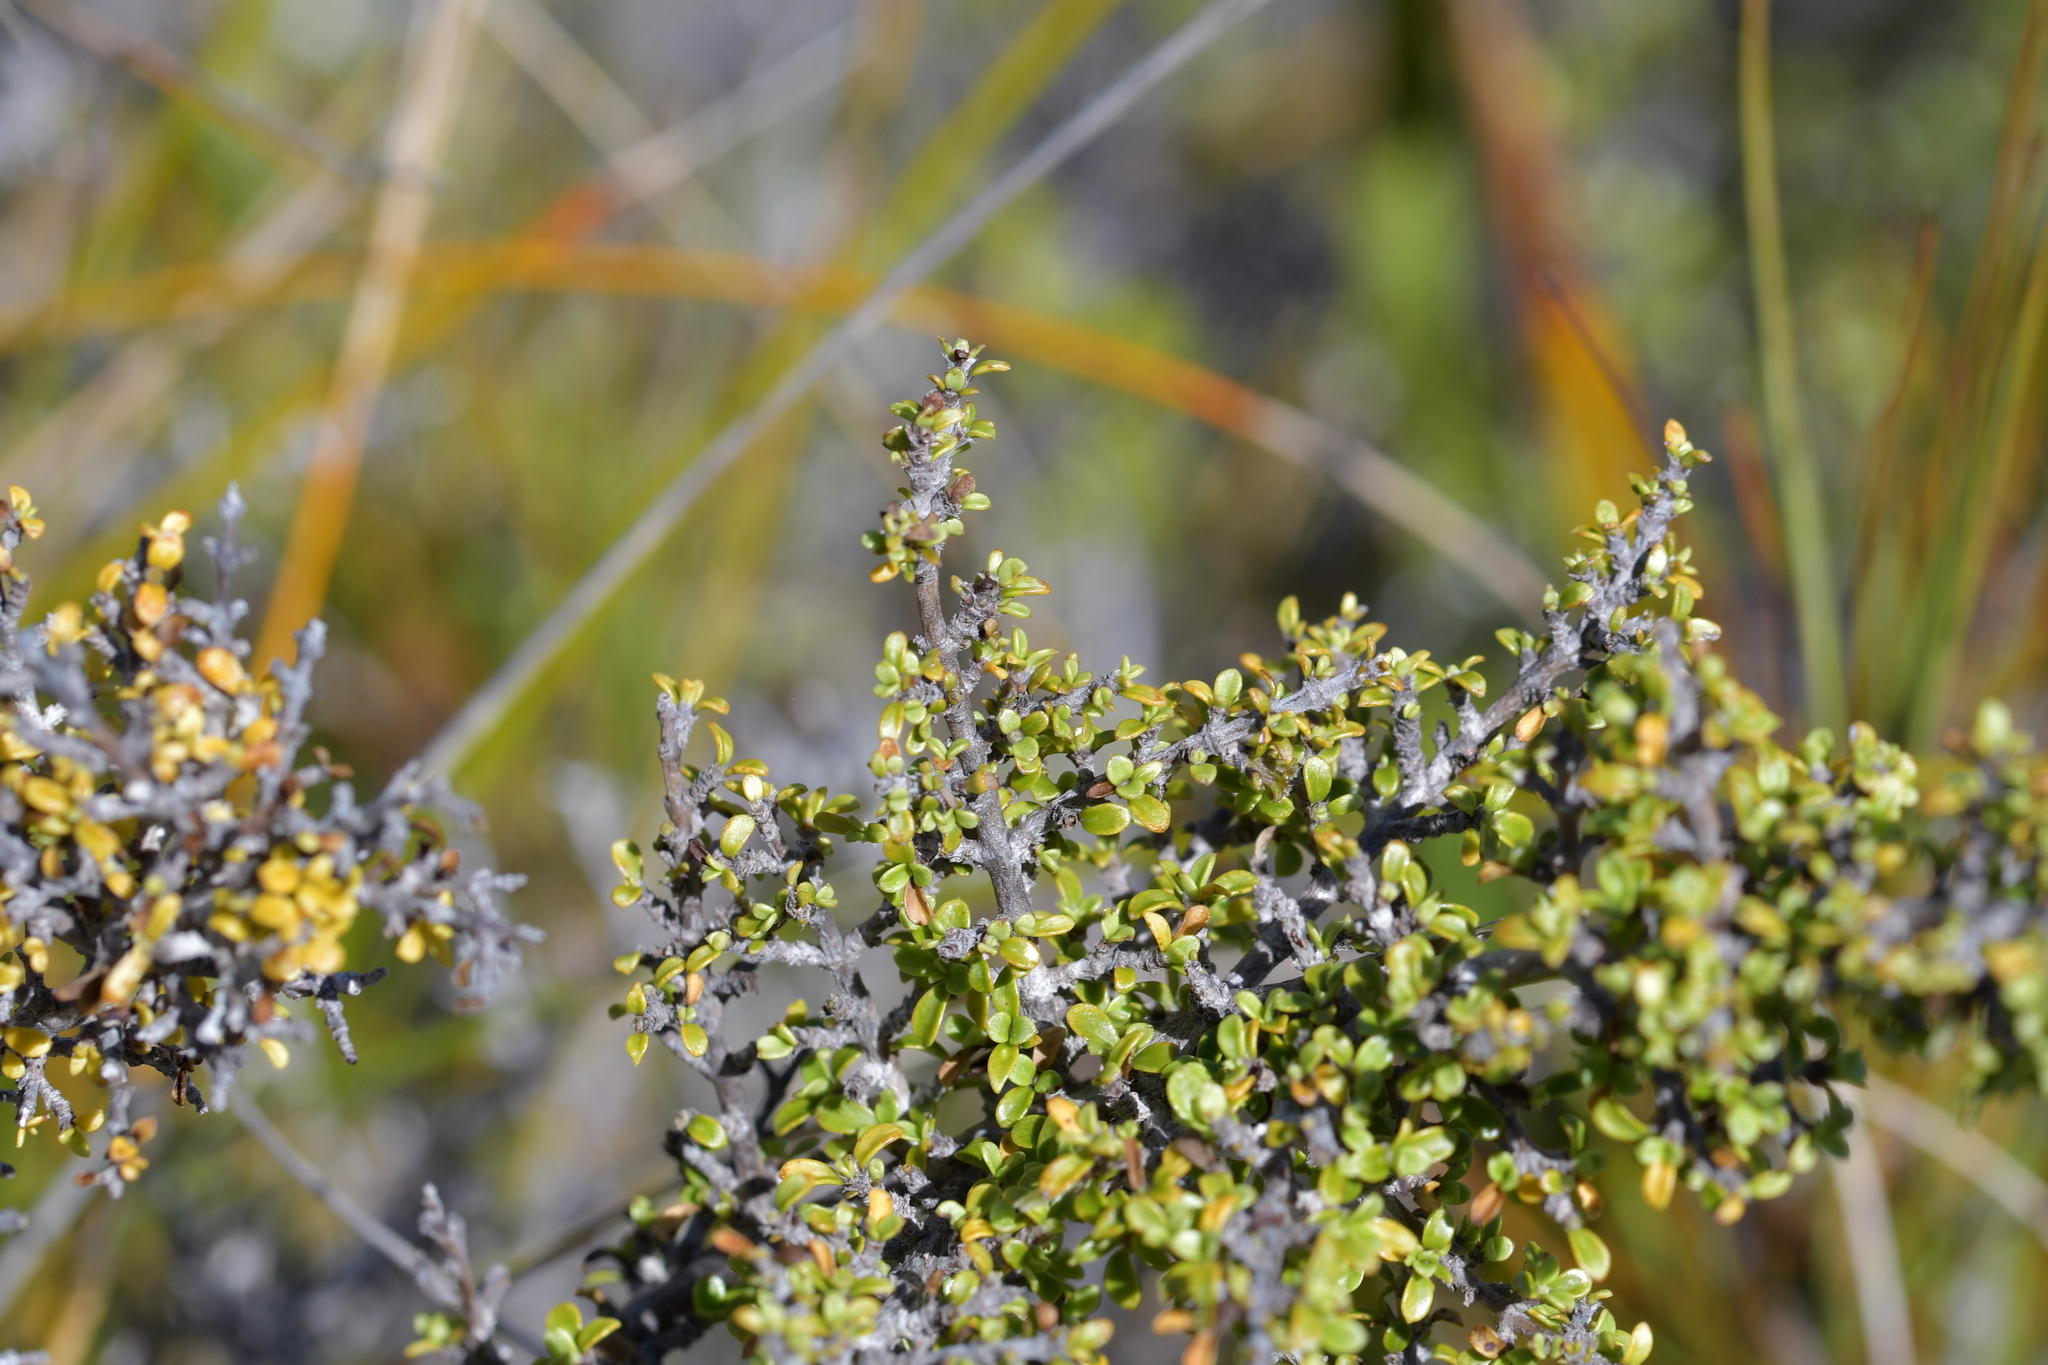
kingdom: Plantae
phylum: Tracheophyta
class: Magnoliopsida
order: Gentianales
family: Rubiaceae
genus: Coprosma
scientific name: Coprosma dumosa
